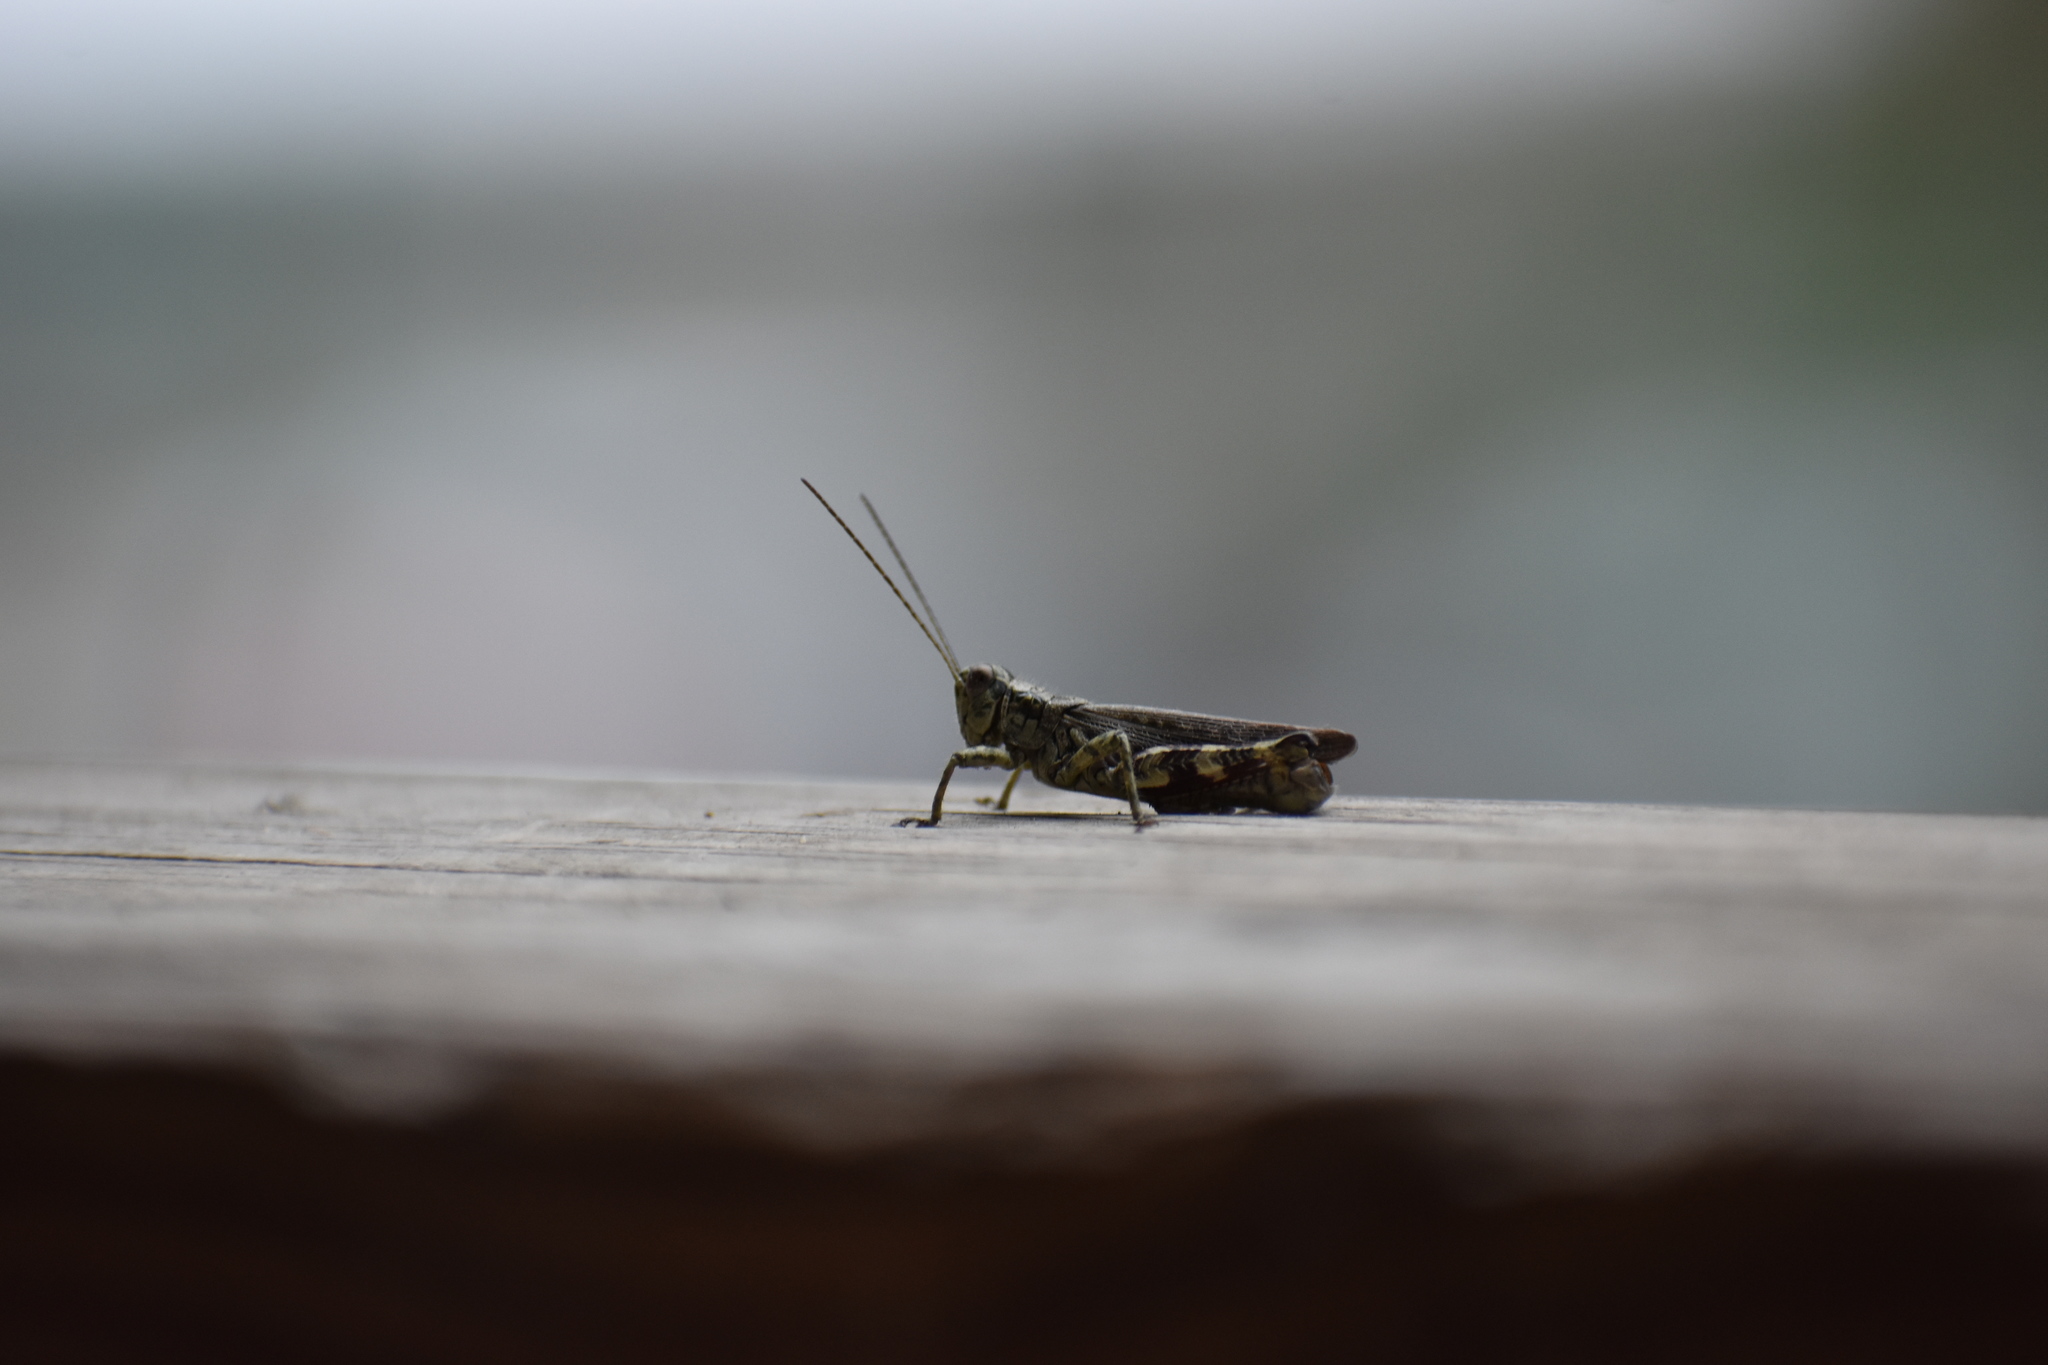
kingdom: Animalia
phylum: Arthropoda
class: Insecta
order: Orthoptera
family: Acrididae
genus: Melanoplus
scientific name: Melanoplus punctulatus
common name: Pine-tree spur-throat grasshopper
